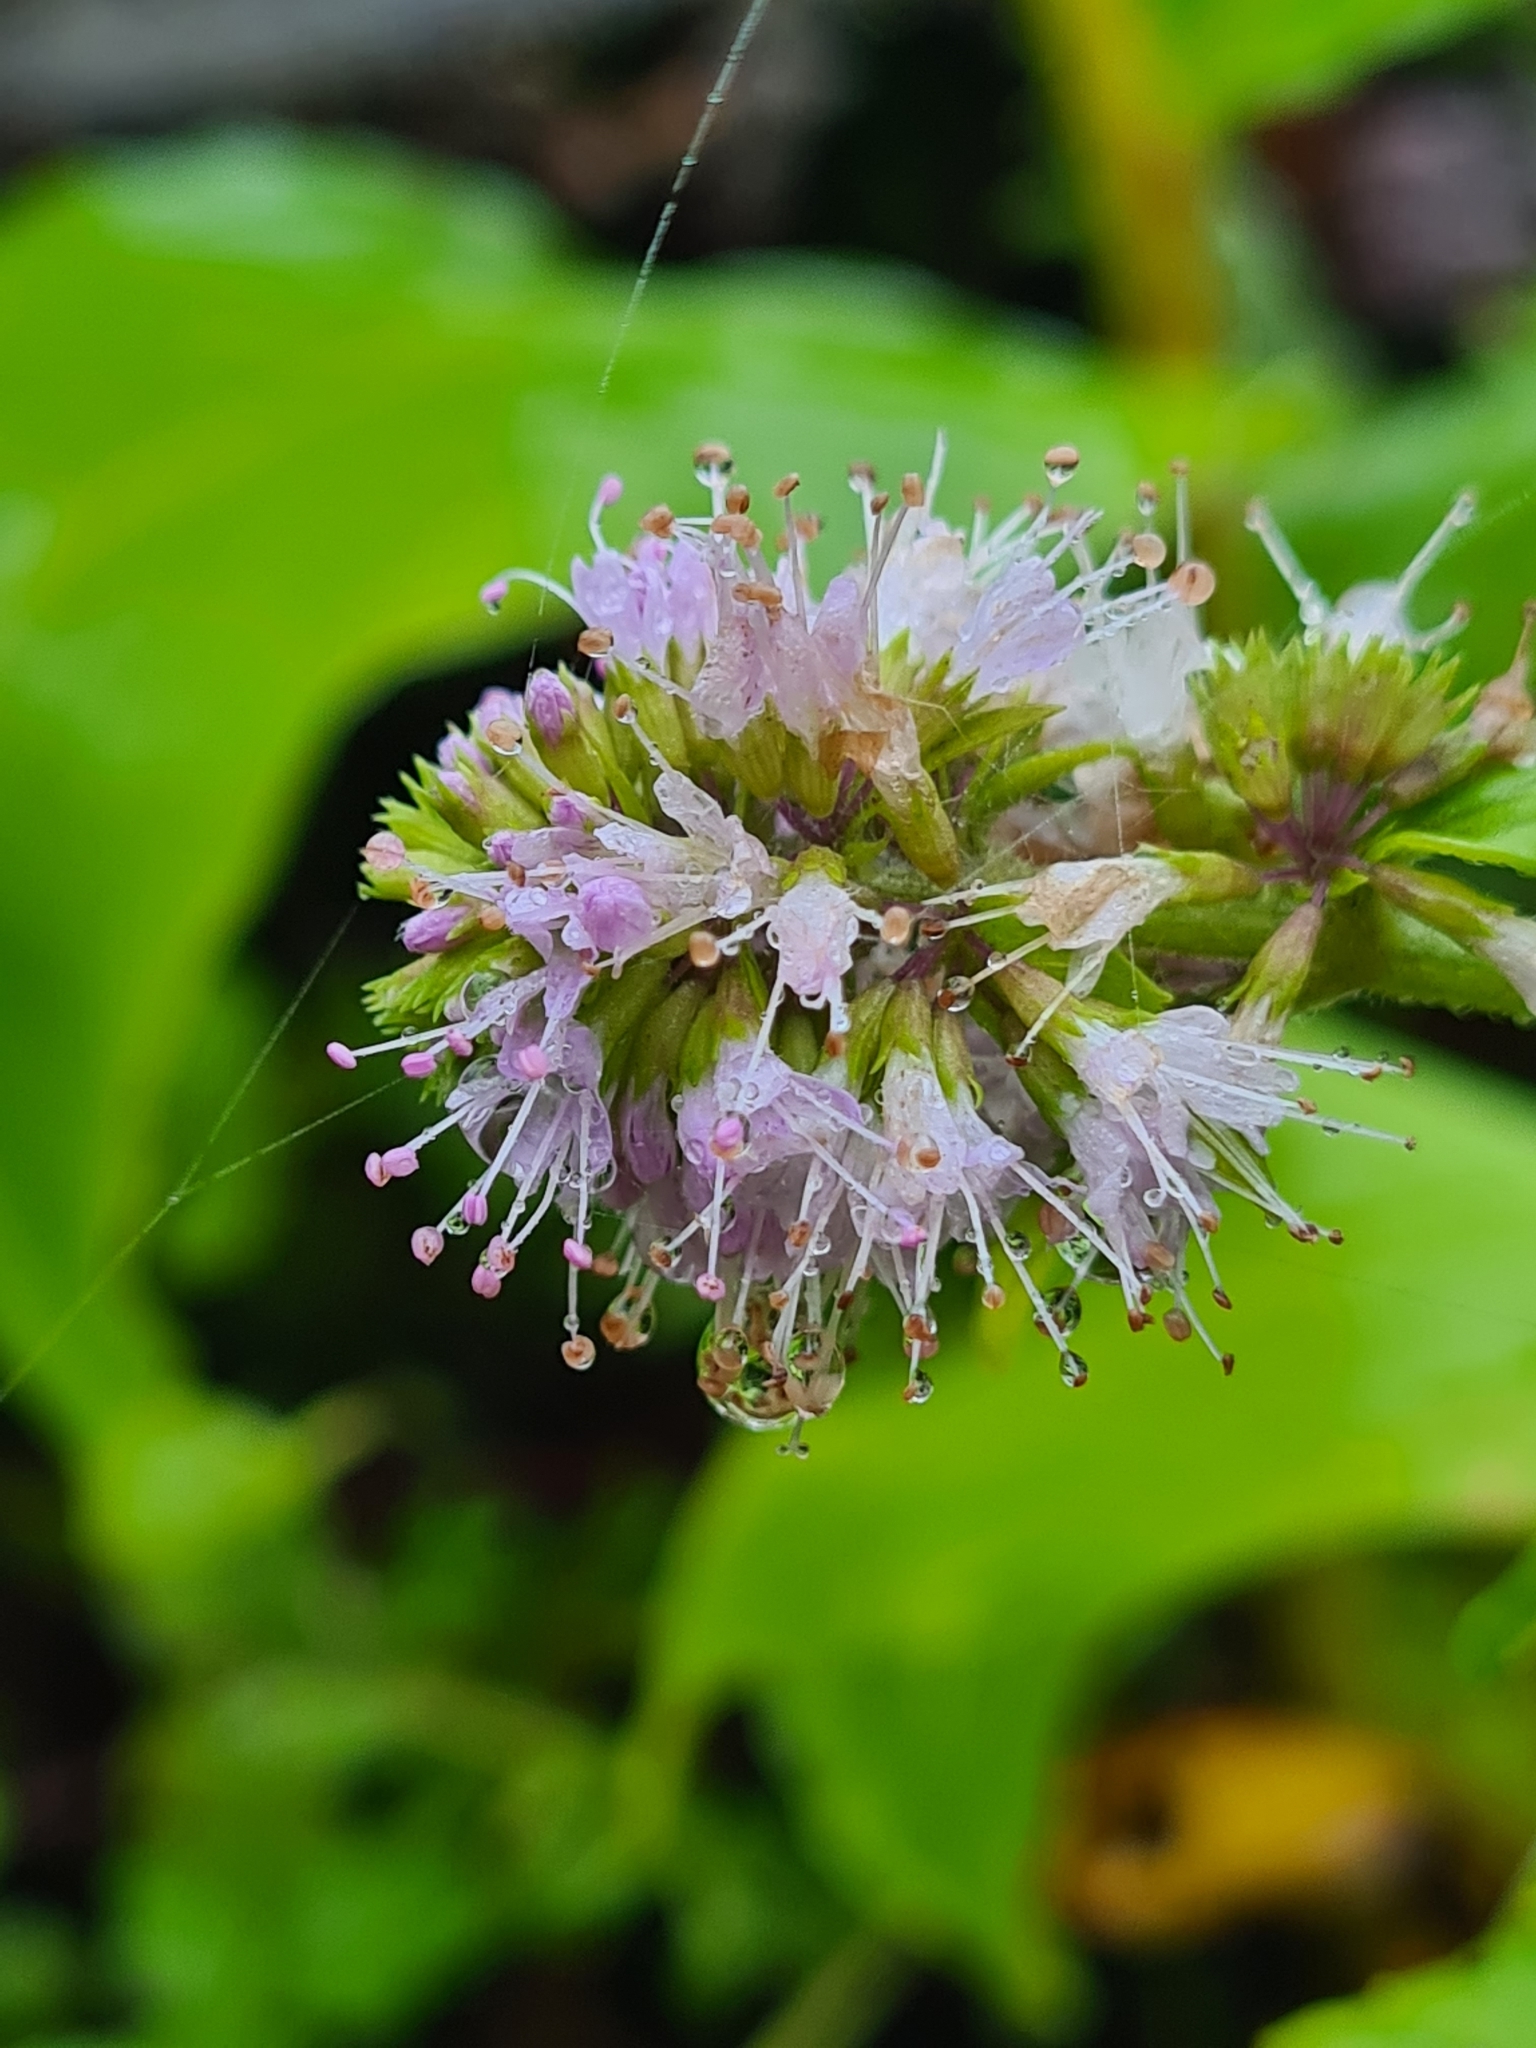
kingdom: Plantae
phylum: Tracheophyta
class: Magnoliopsida
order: Lamiales
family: Lamiaceae
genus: Mentha
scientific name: Mentha aquatica
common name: Water mint
